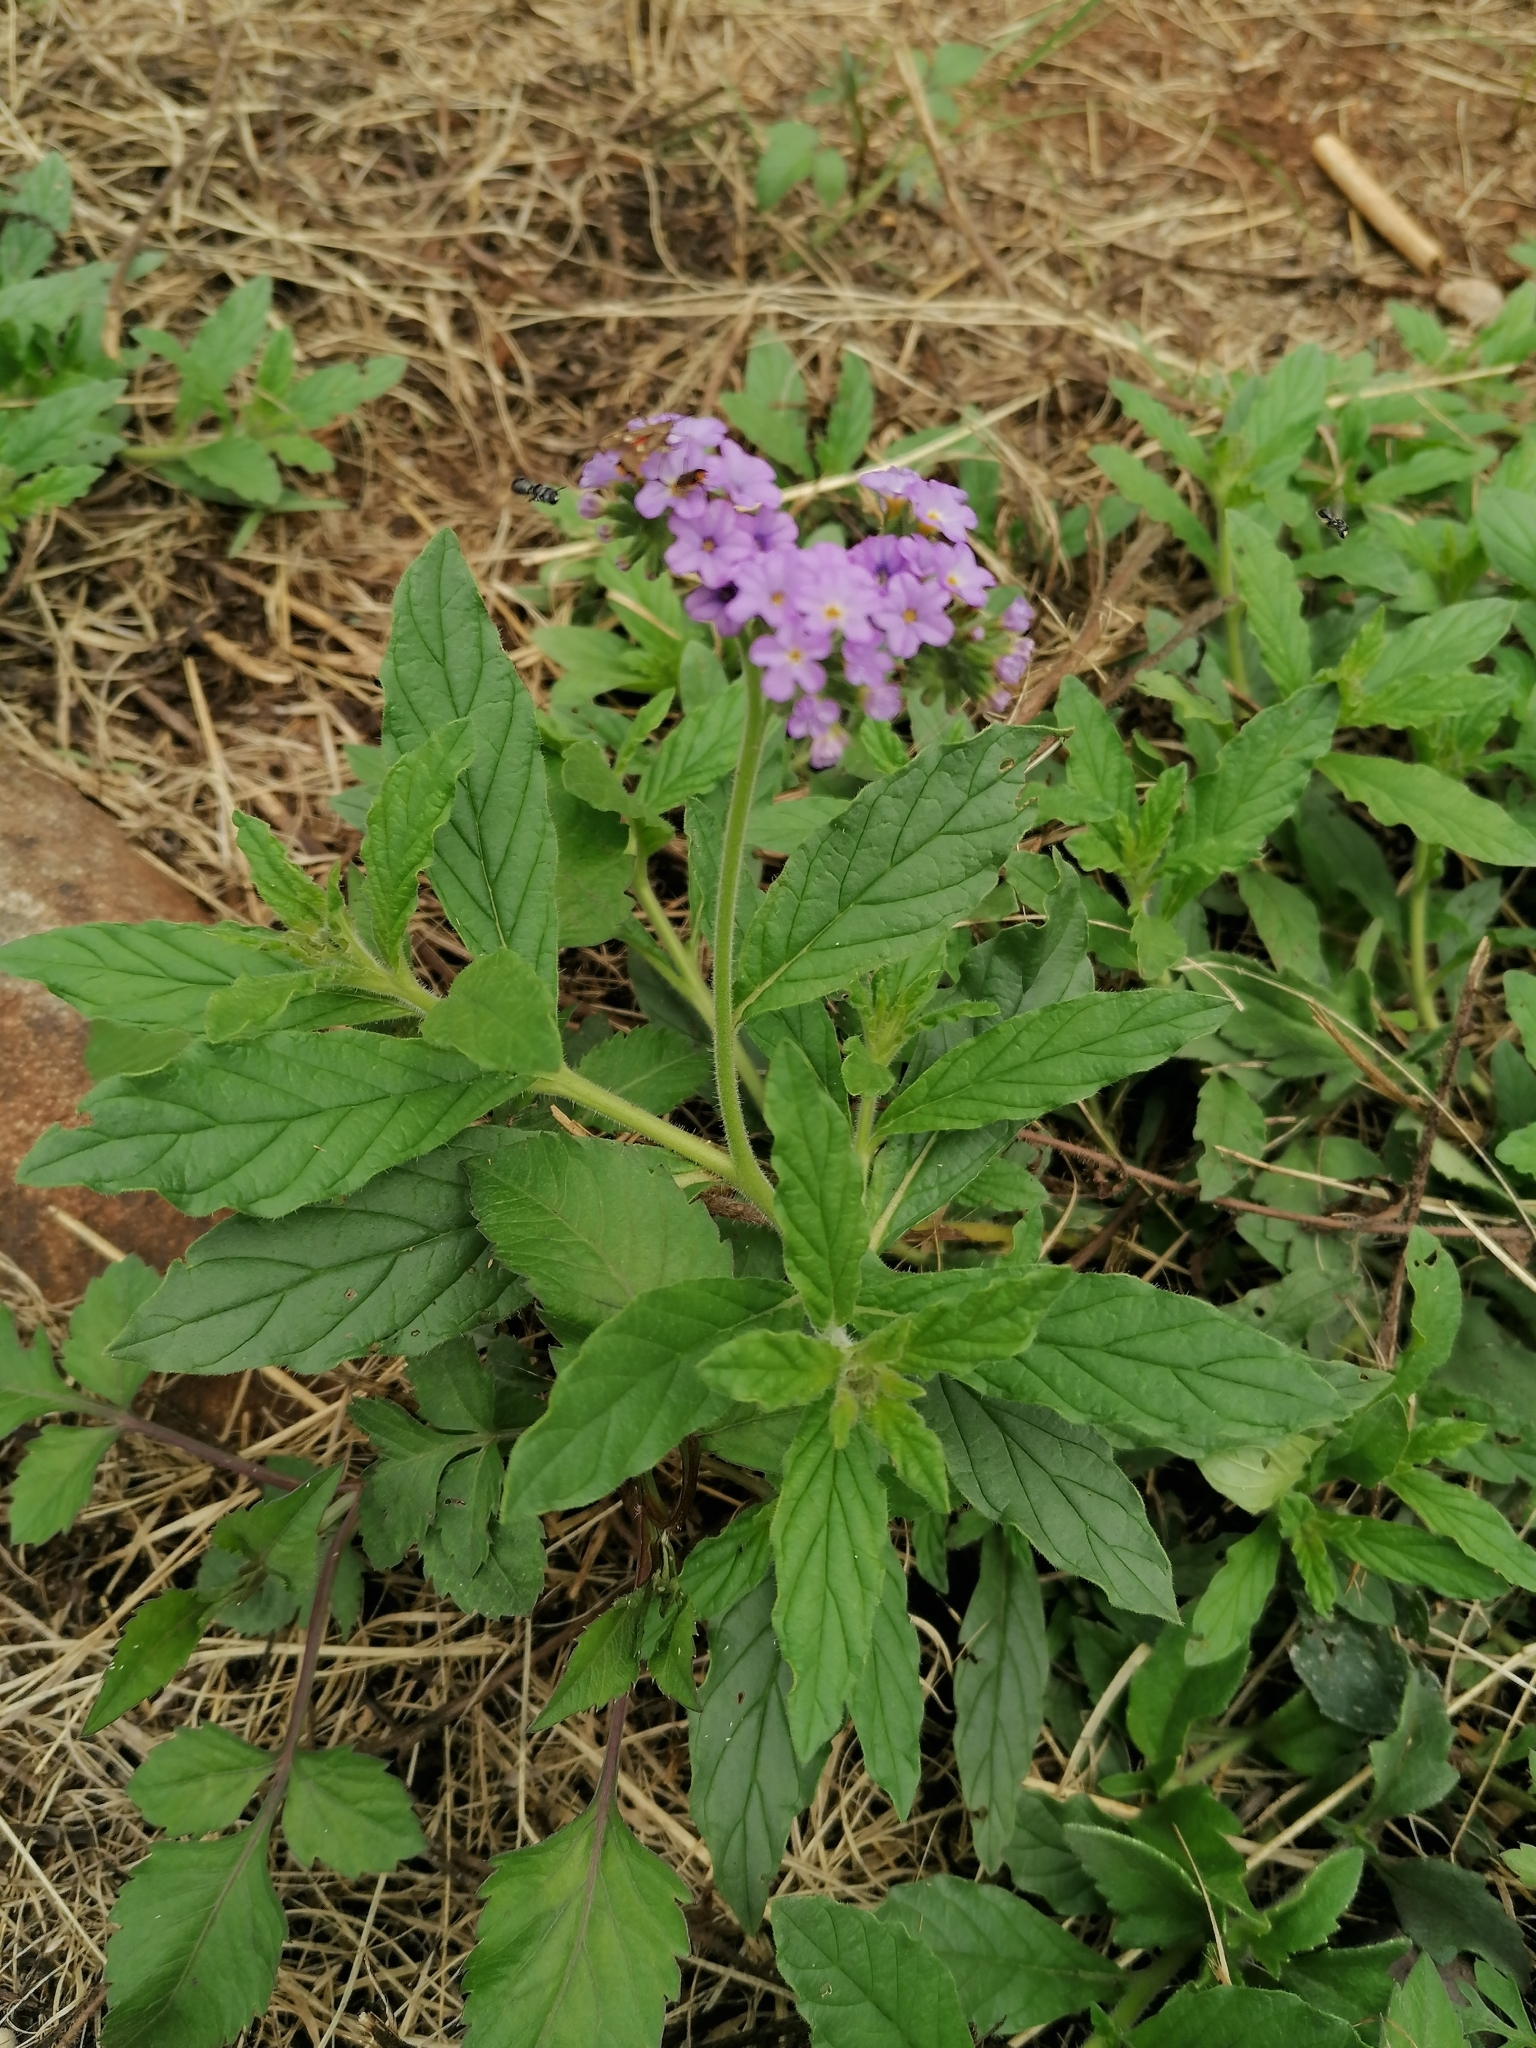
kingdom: Plantae
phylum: Tracheophyta
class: Magnoliopsida
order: Boraginales
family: Heliotropiaceae
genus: Heliotropium
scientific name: Heliotropium amplexicaule
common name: Clasping heliotrope
